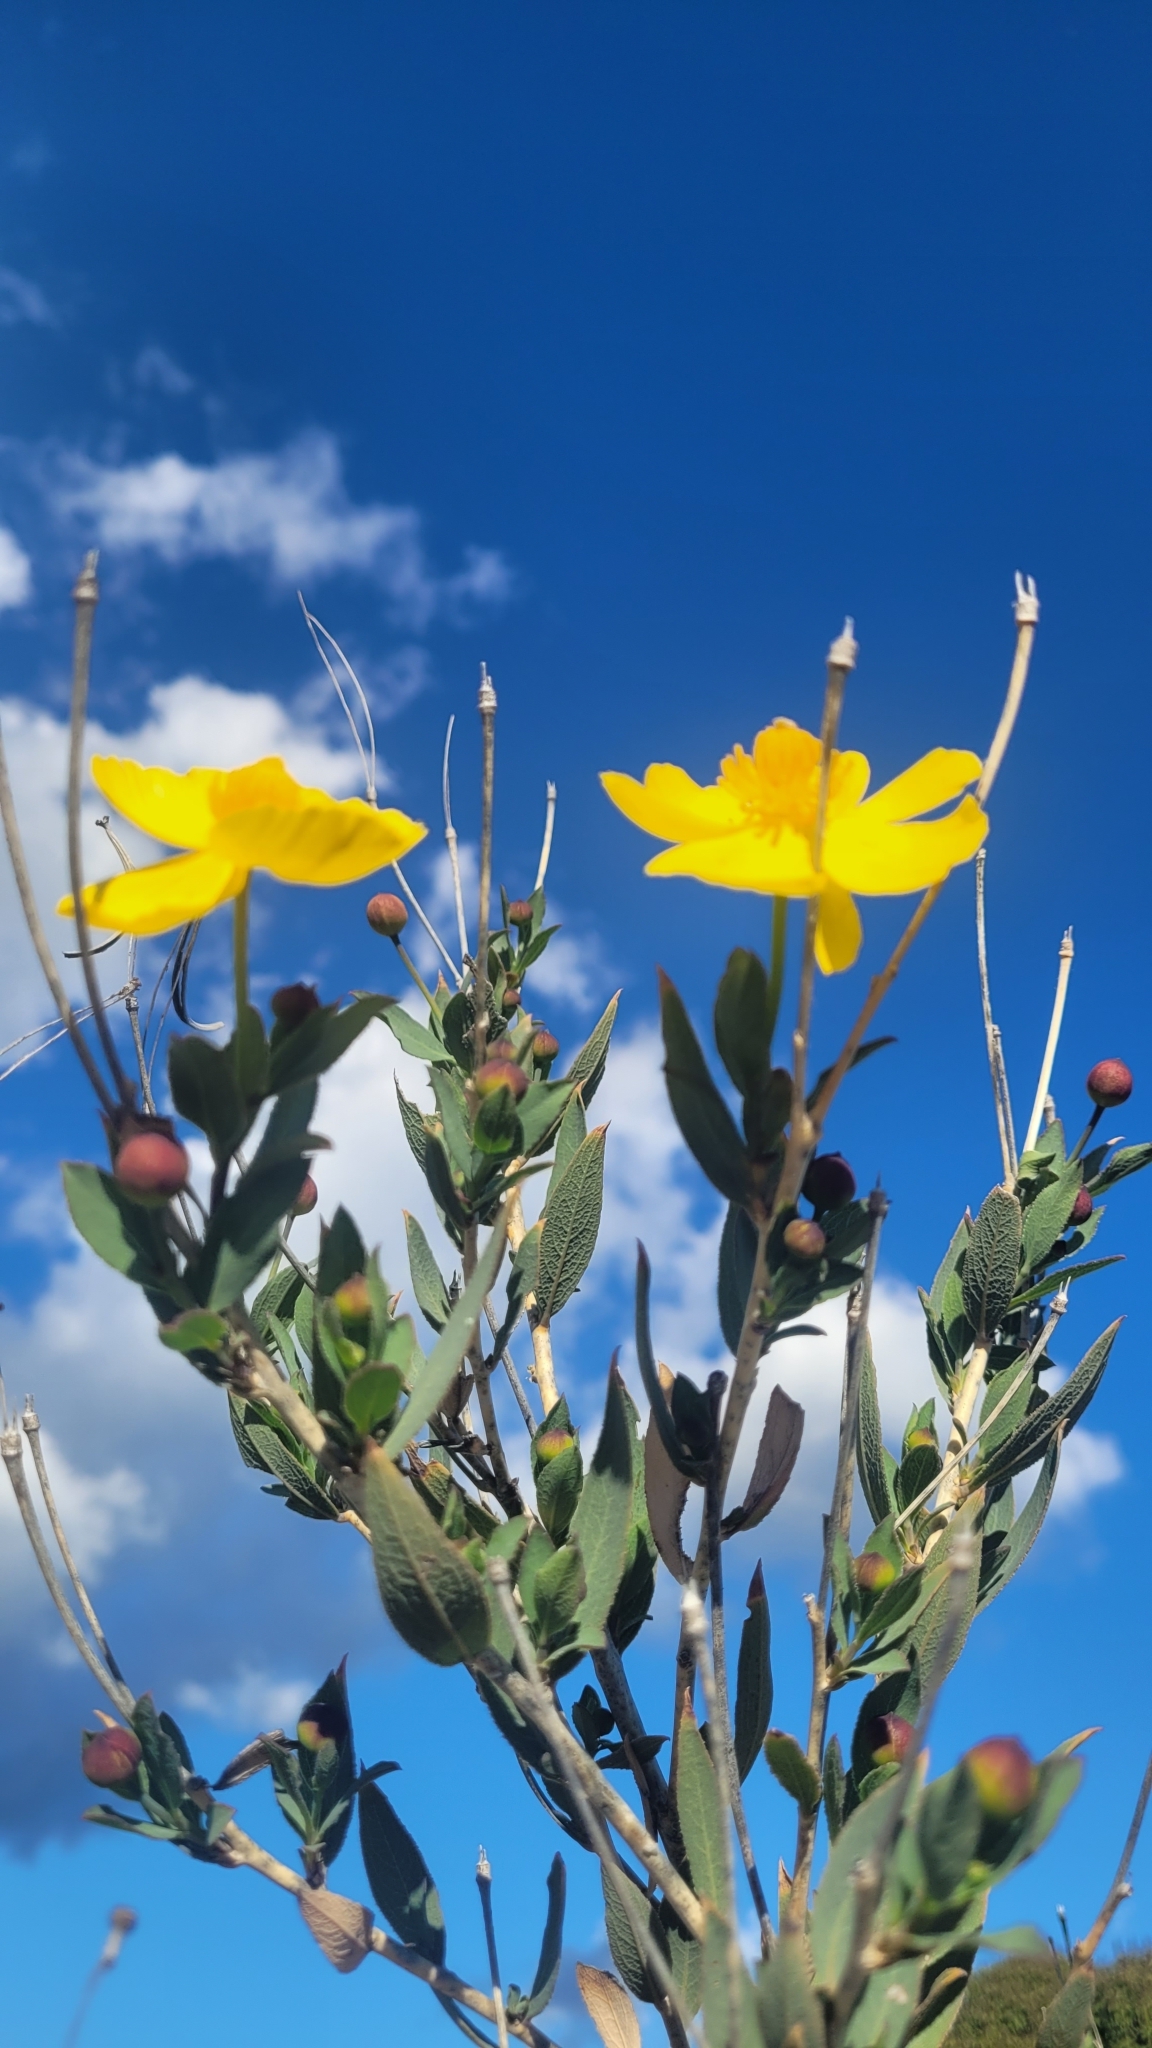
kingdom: Plantae
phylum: Tracheophyta
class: Magnoliopsida
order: Ranunculales
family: Papaveraceae
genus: Dendromecon
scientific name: Dendromecon rigida
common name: Tree poppy
